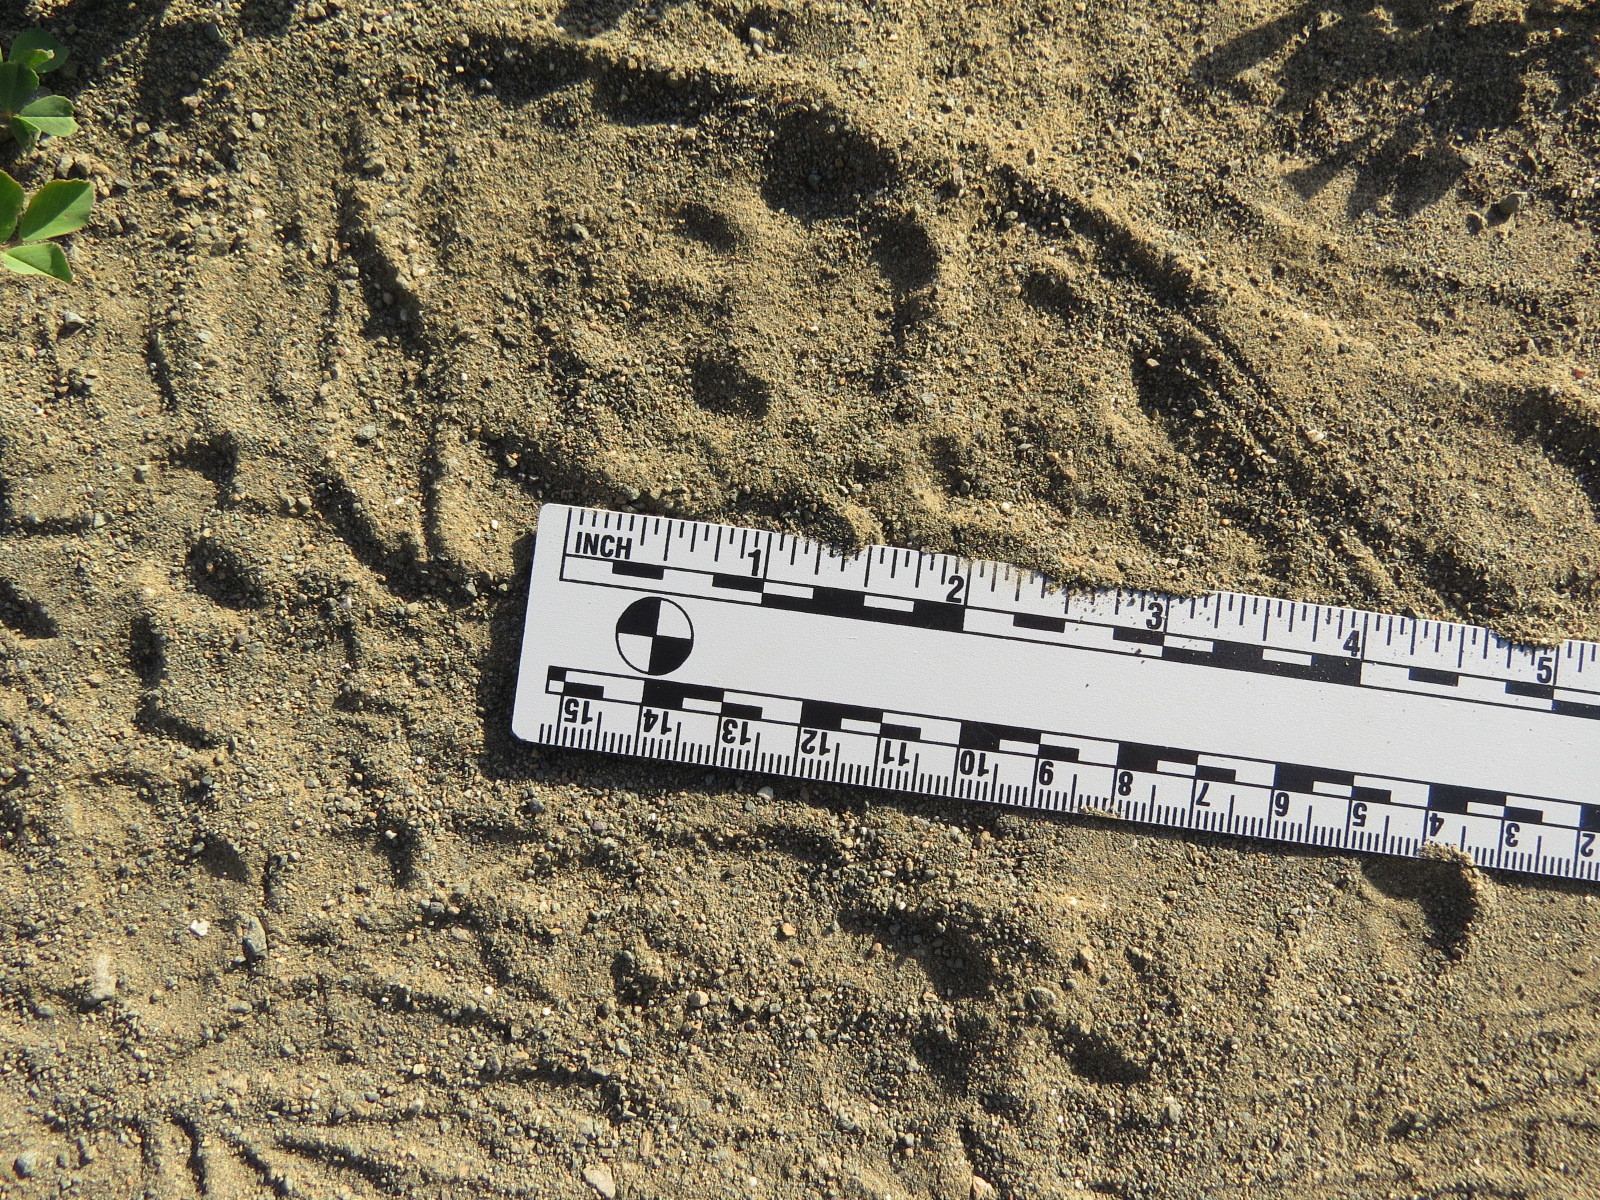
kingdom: Animalia
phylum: Chordata
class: Mammalia
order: Carnivora
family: Felidae
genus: Lynx
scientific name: Lynx rufus
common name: Bobcat
